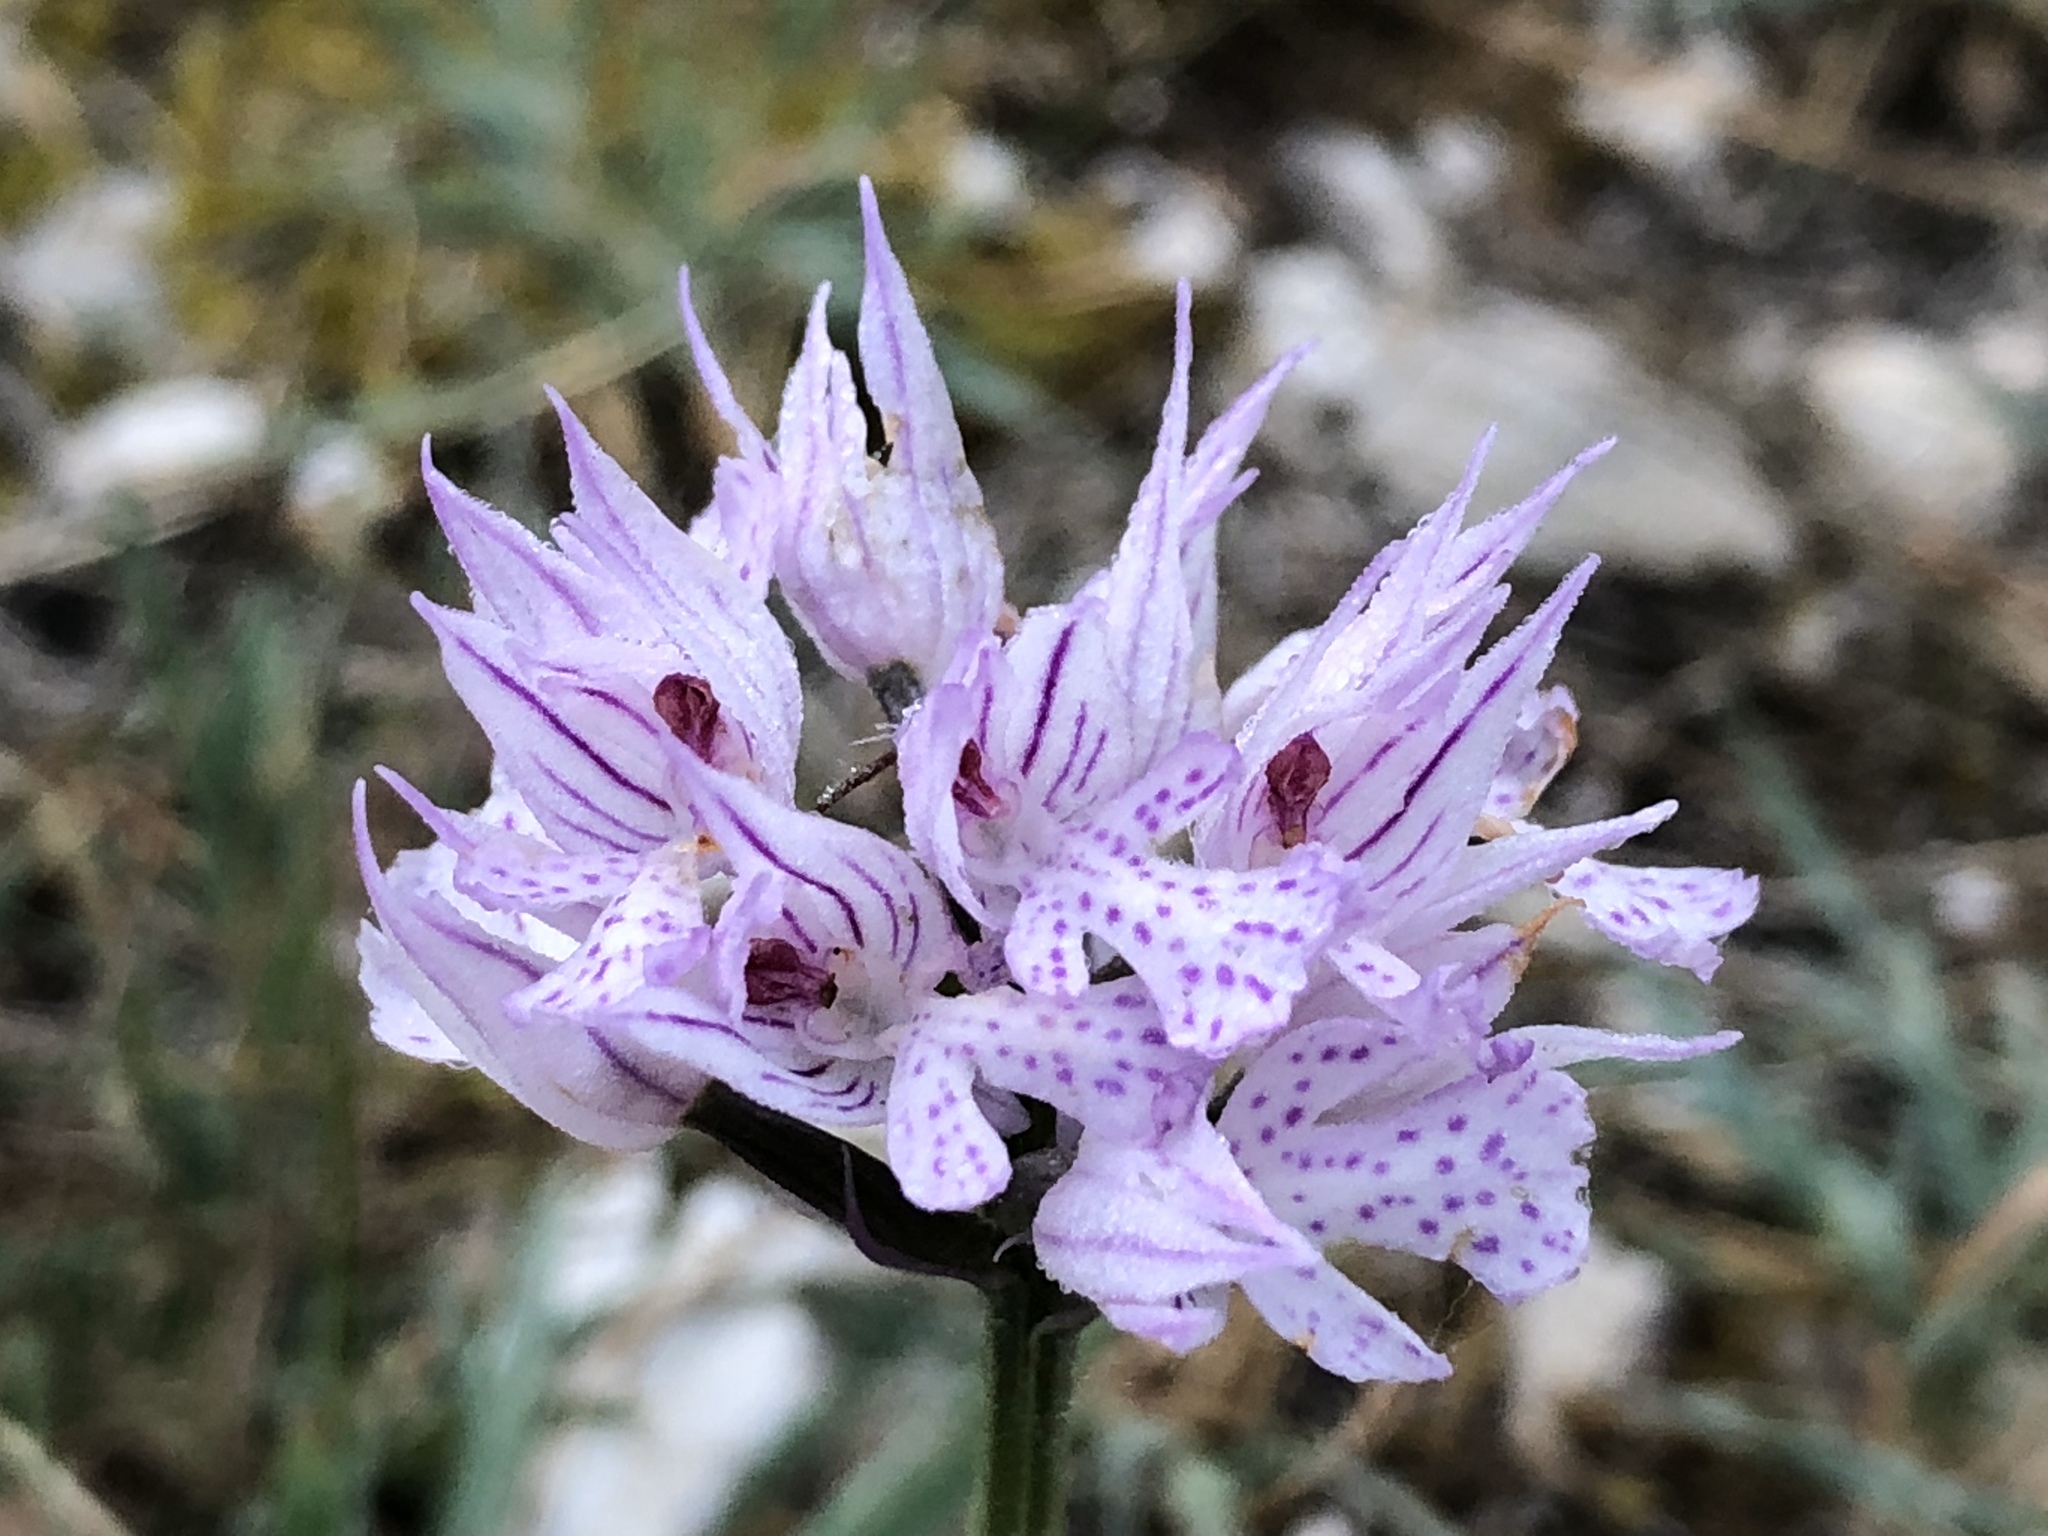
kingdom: Plantae
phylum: Tracheophyta
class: Liliopsida
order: Asparagales
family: Orchidaceae
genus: Neotinea
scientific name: Neotinea tridentata
